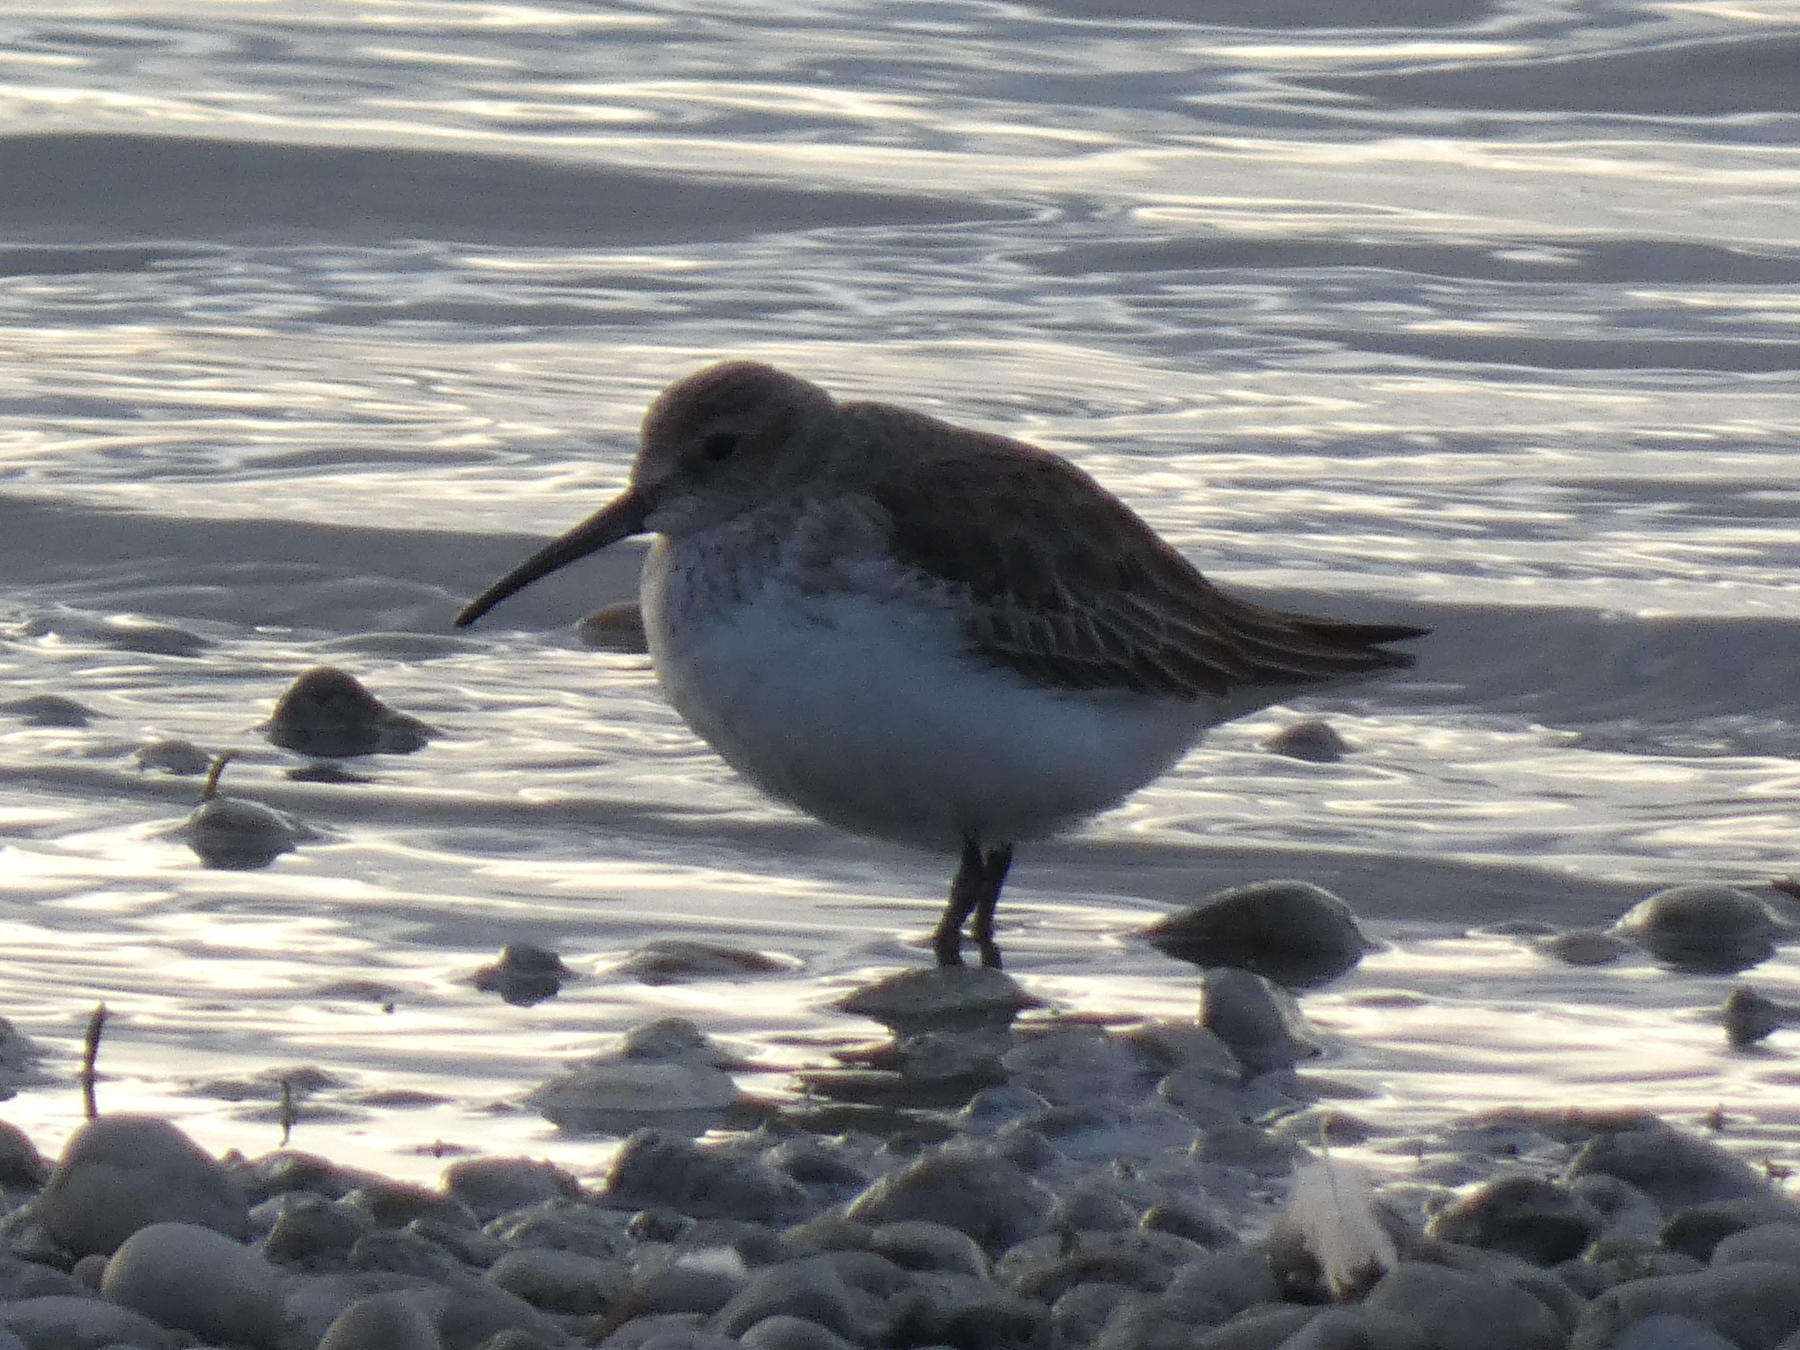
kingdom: Animalia
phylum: Chordata
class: Aves
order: Charadriiformes
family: Scolopacidae
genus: Calidris
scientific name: Calidris alpina
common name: Dunlin
